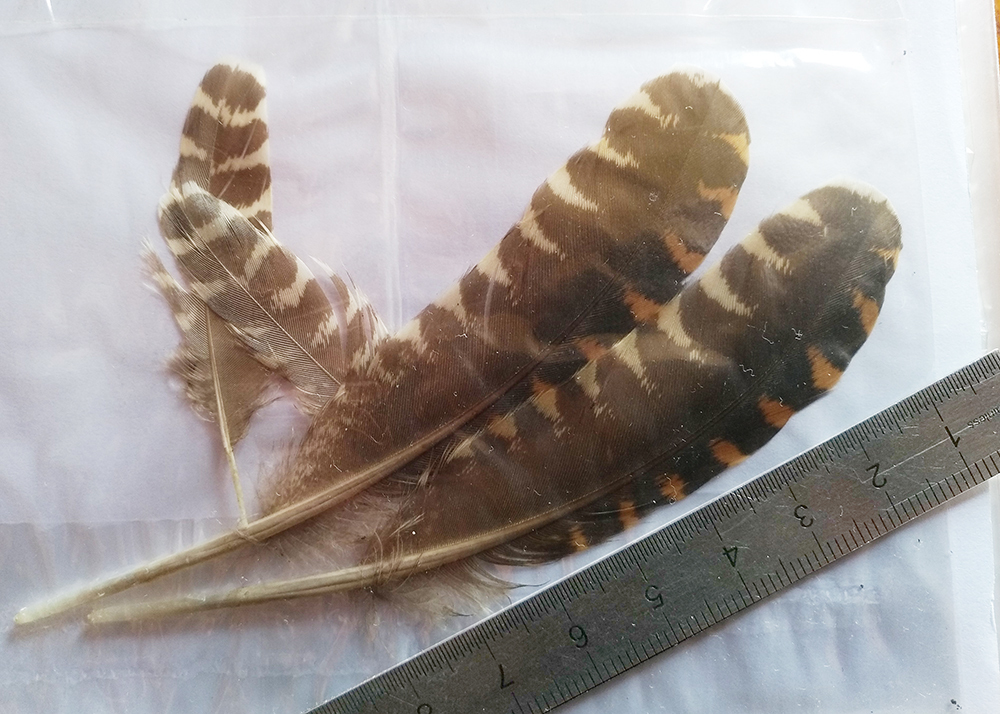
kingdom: Animalia
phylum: Chordata
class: Aves
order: Charadriiformes
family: Scolopacidae
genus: Scolopax
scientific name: Scolopax rusticola
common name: Eurasian woodcock
